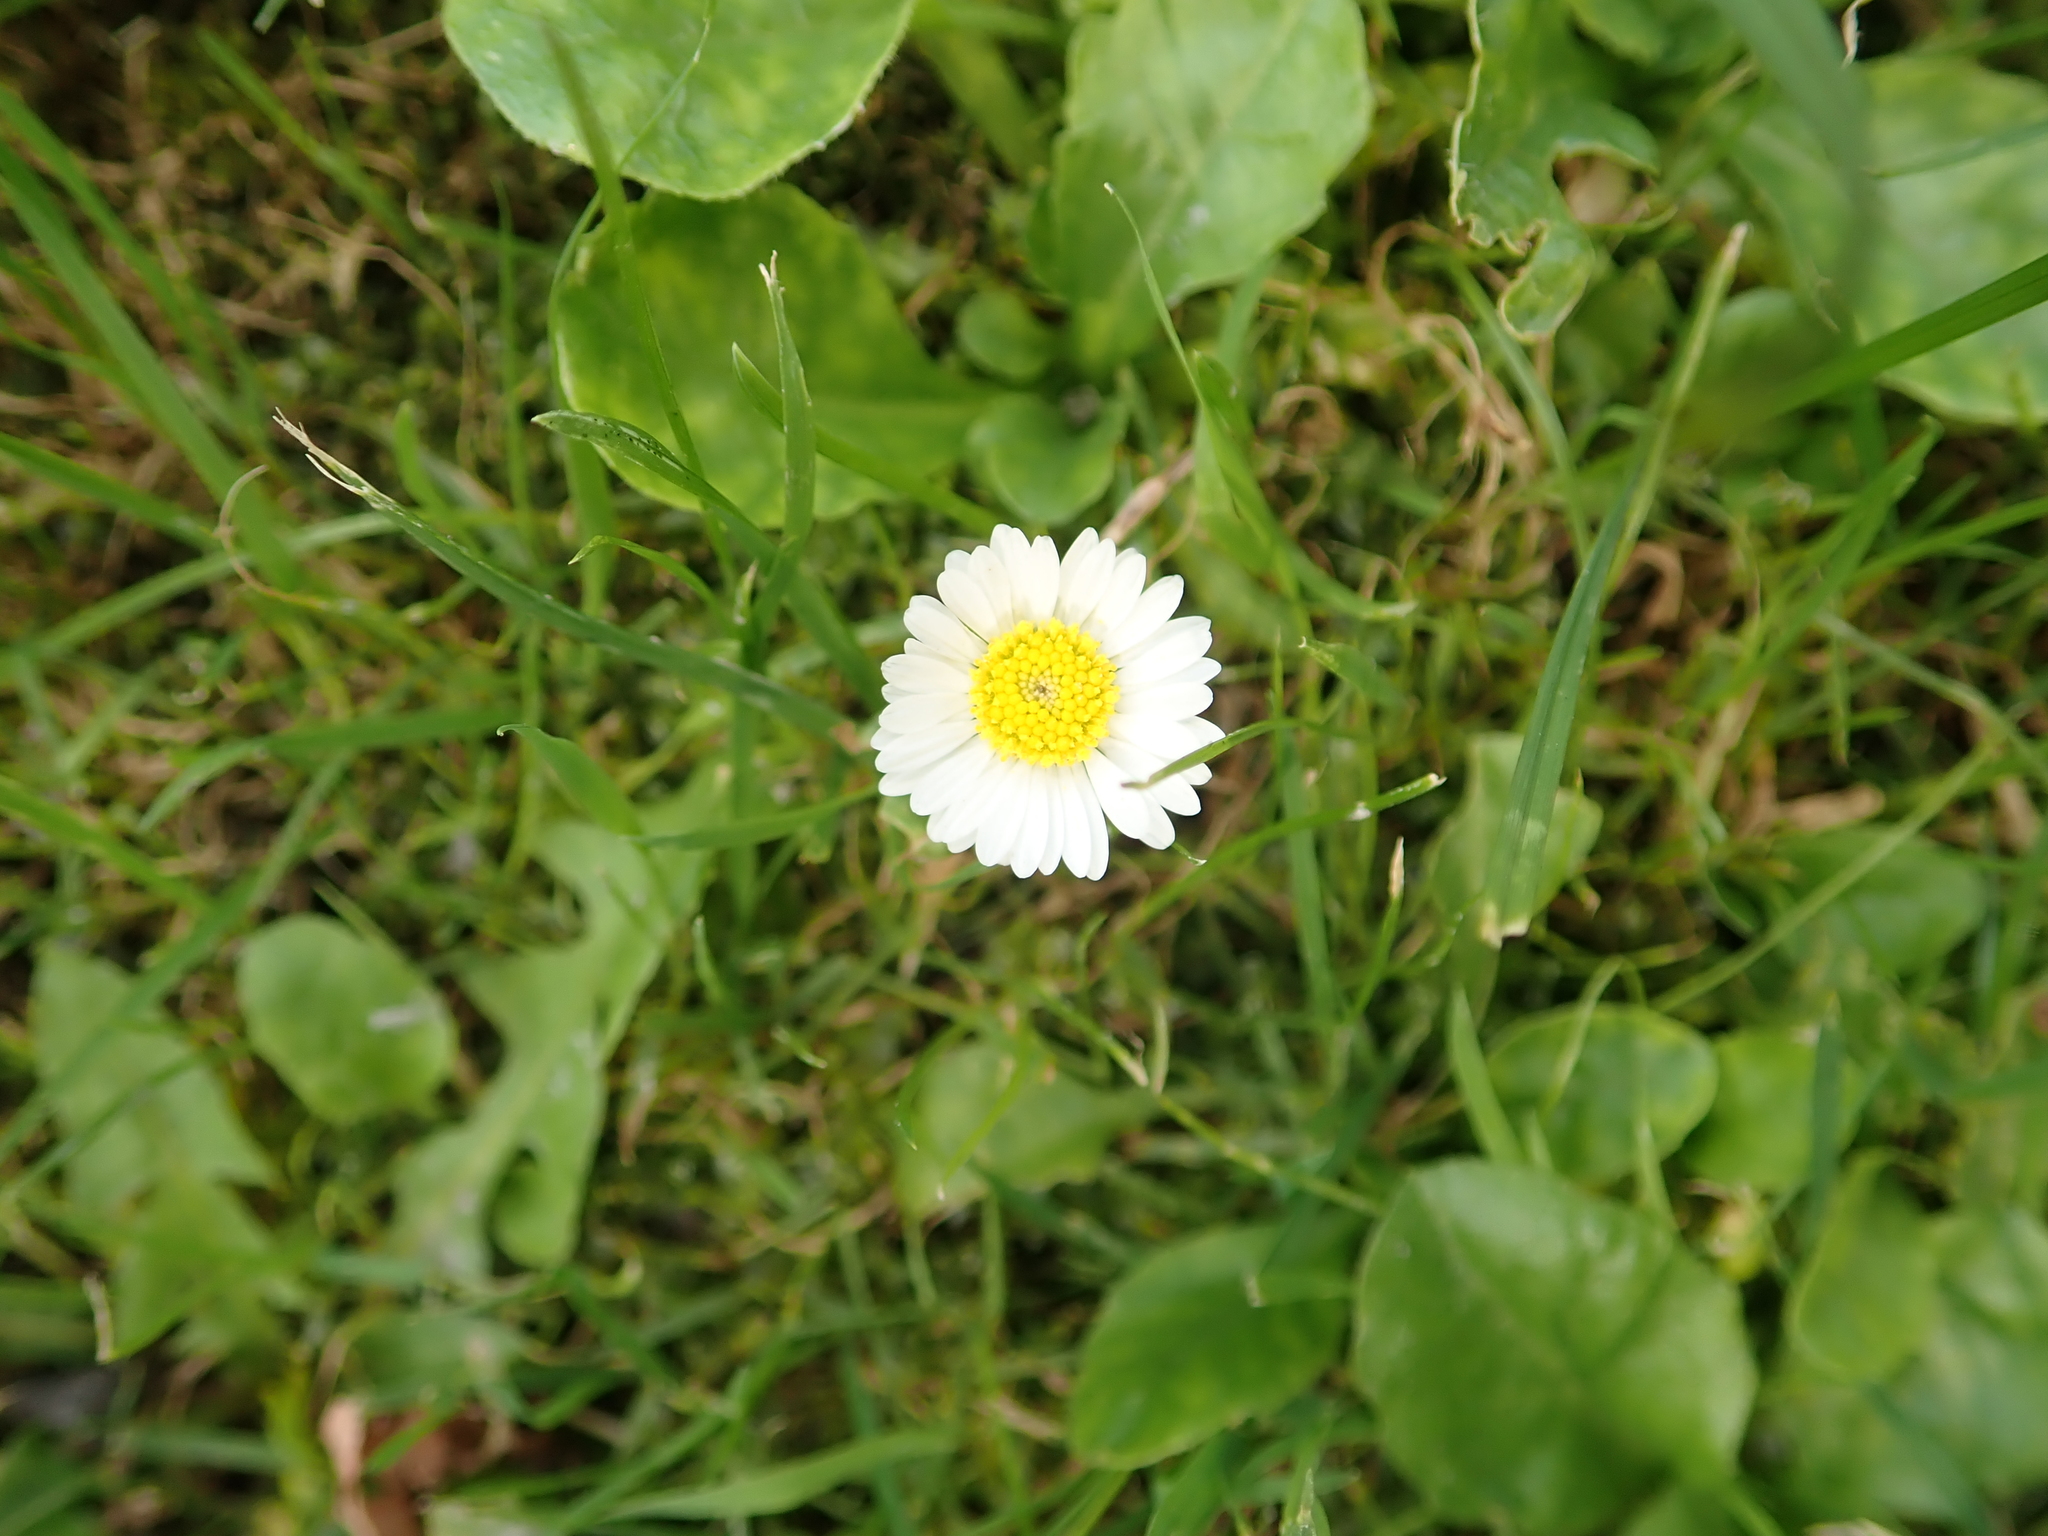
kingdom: Plantae
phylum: Tracheophyta
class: Magnoliopsida
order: Asterales
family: Asteraceae
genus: Bellis
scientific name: Bellis perennis
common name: Lawndaisy
